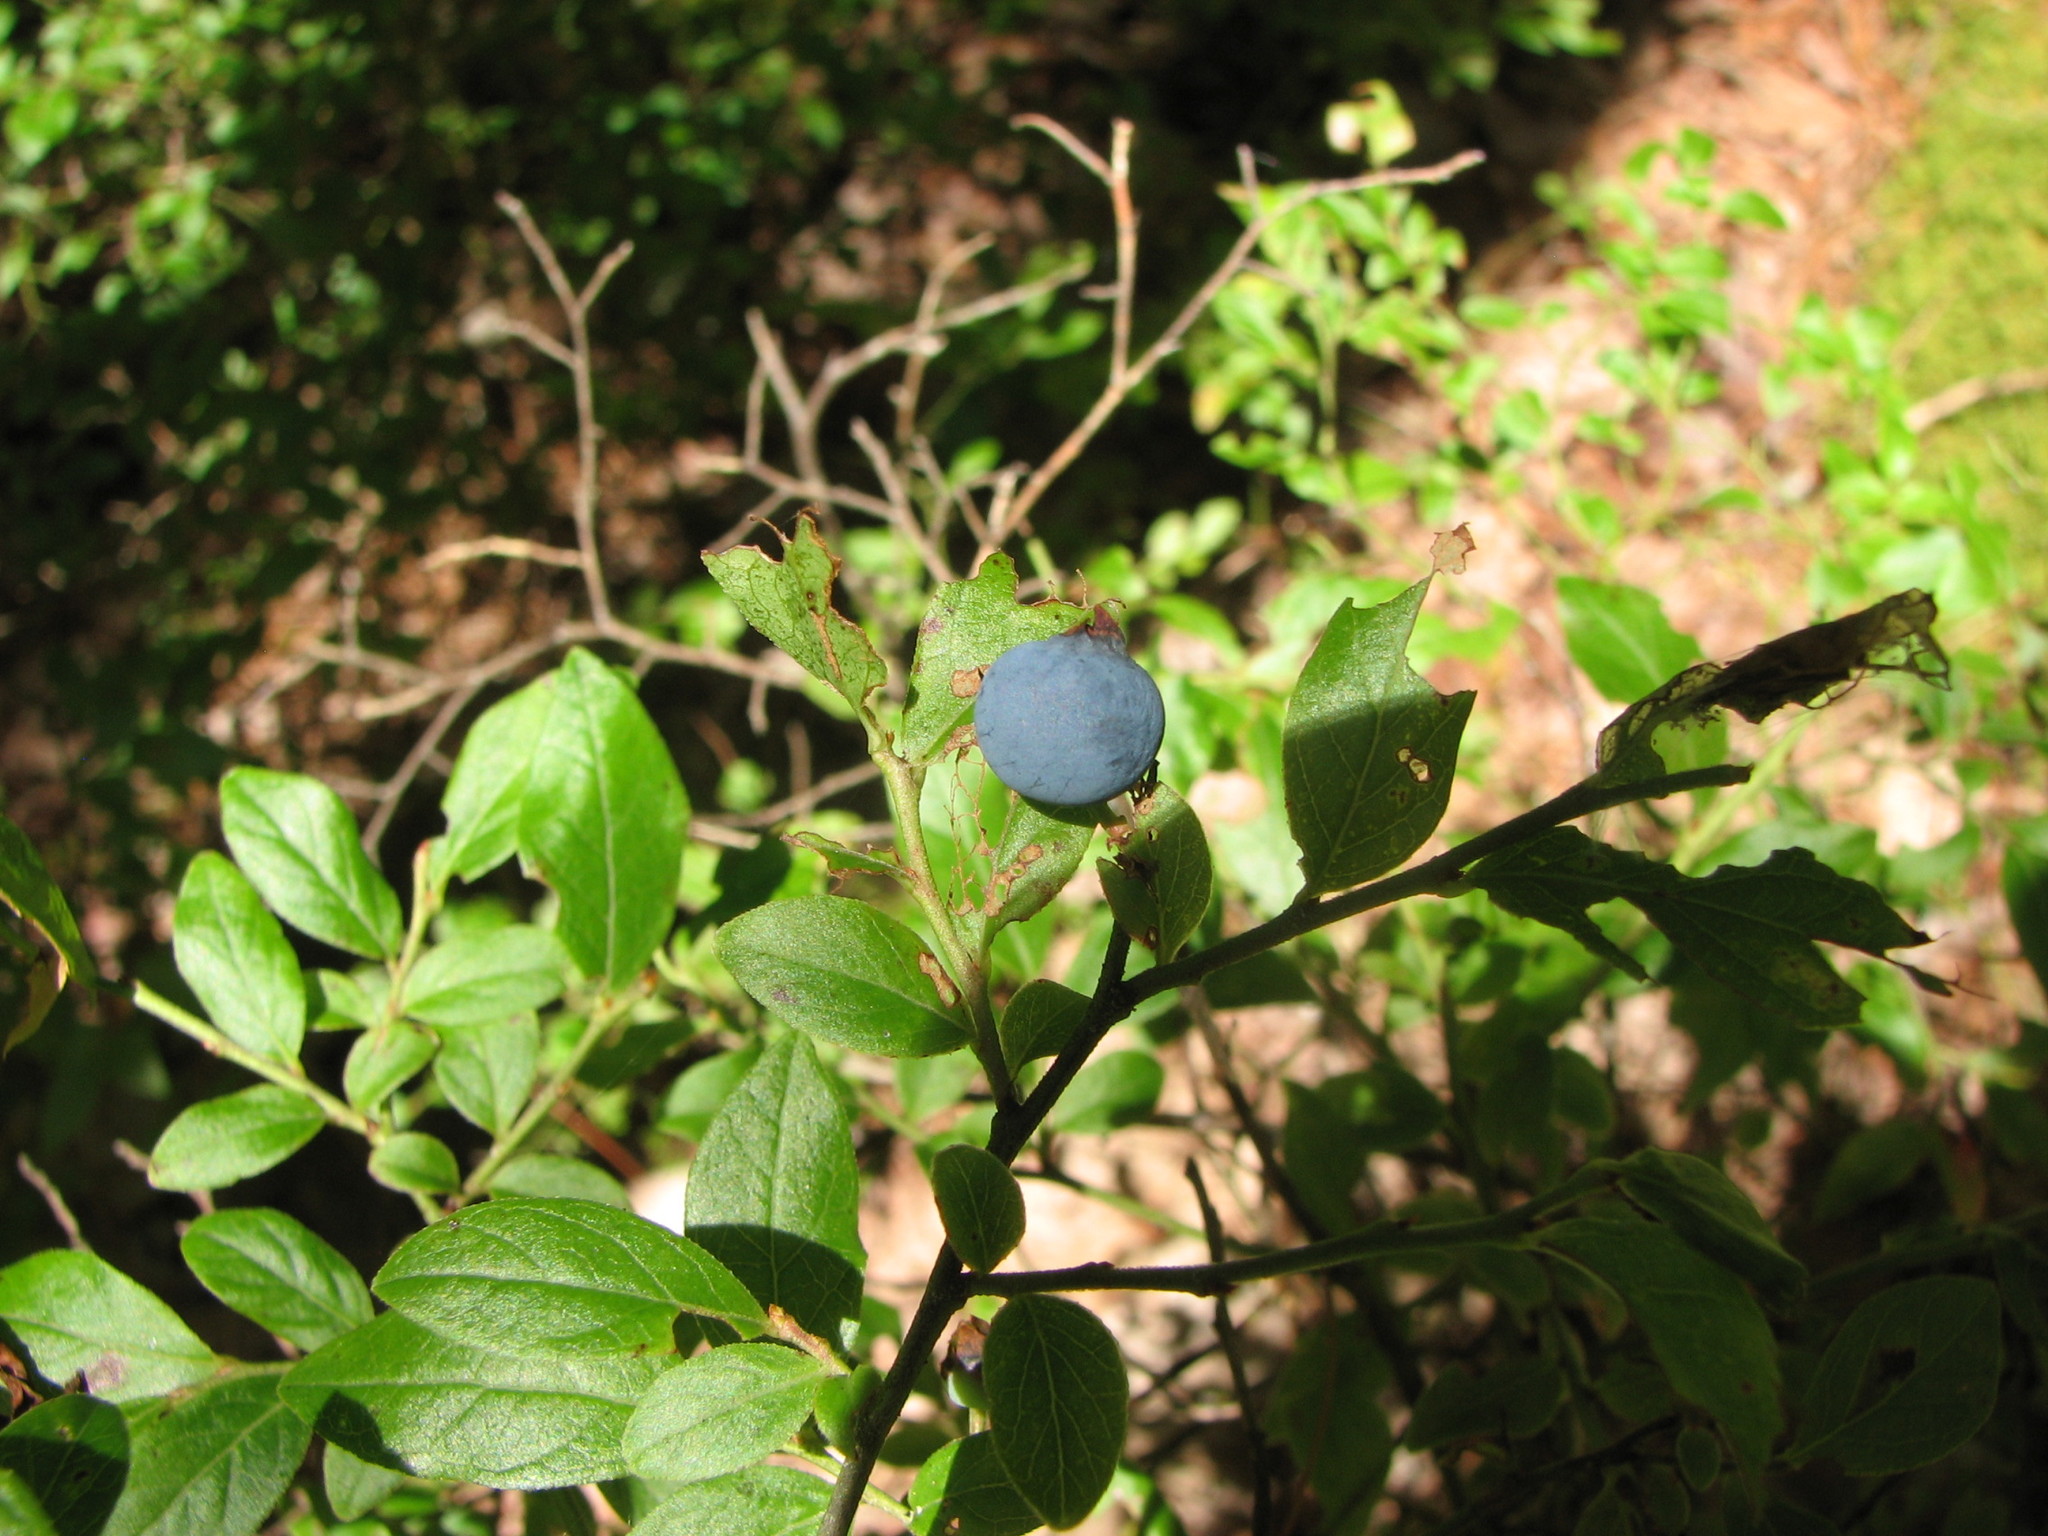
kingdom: Plantae
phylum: Tracheophyta
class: Magnoliopsida
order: Ericales
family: Ericaceae
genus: Vaccinium
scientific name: Vaccinium angustifolium
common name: Early lowbush blueberry
